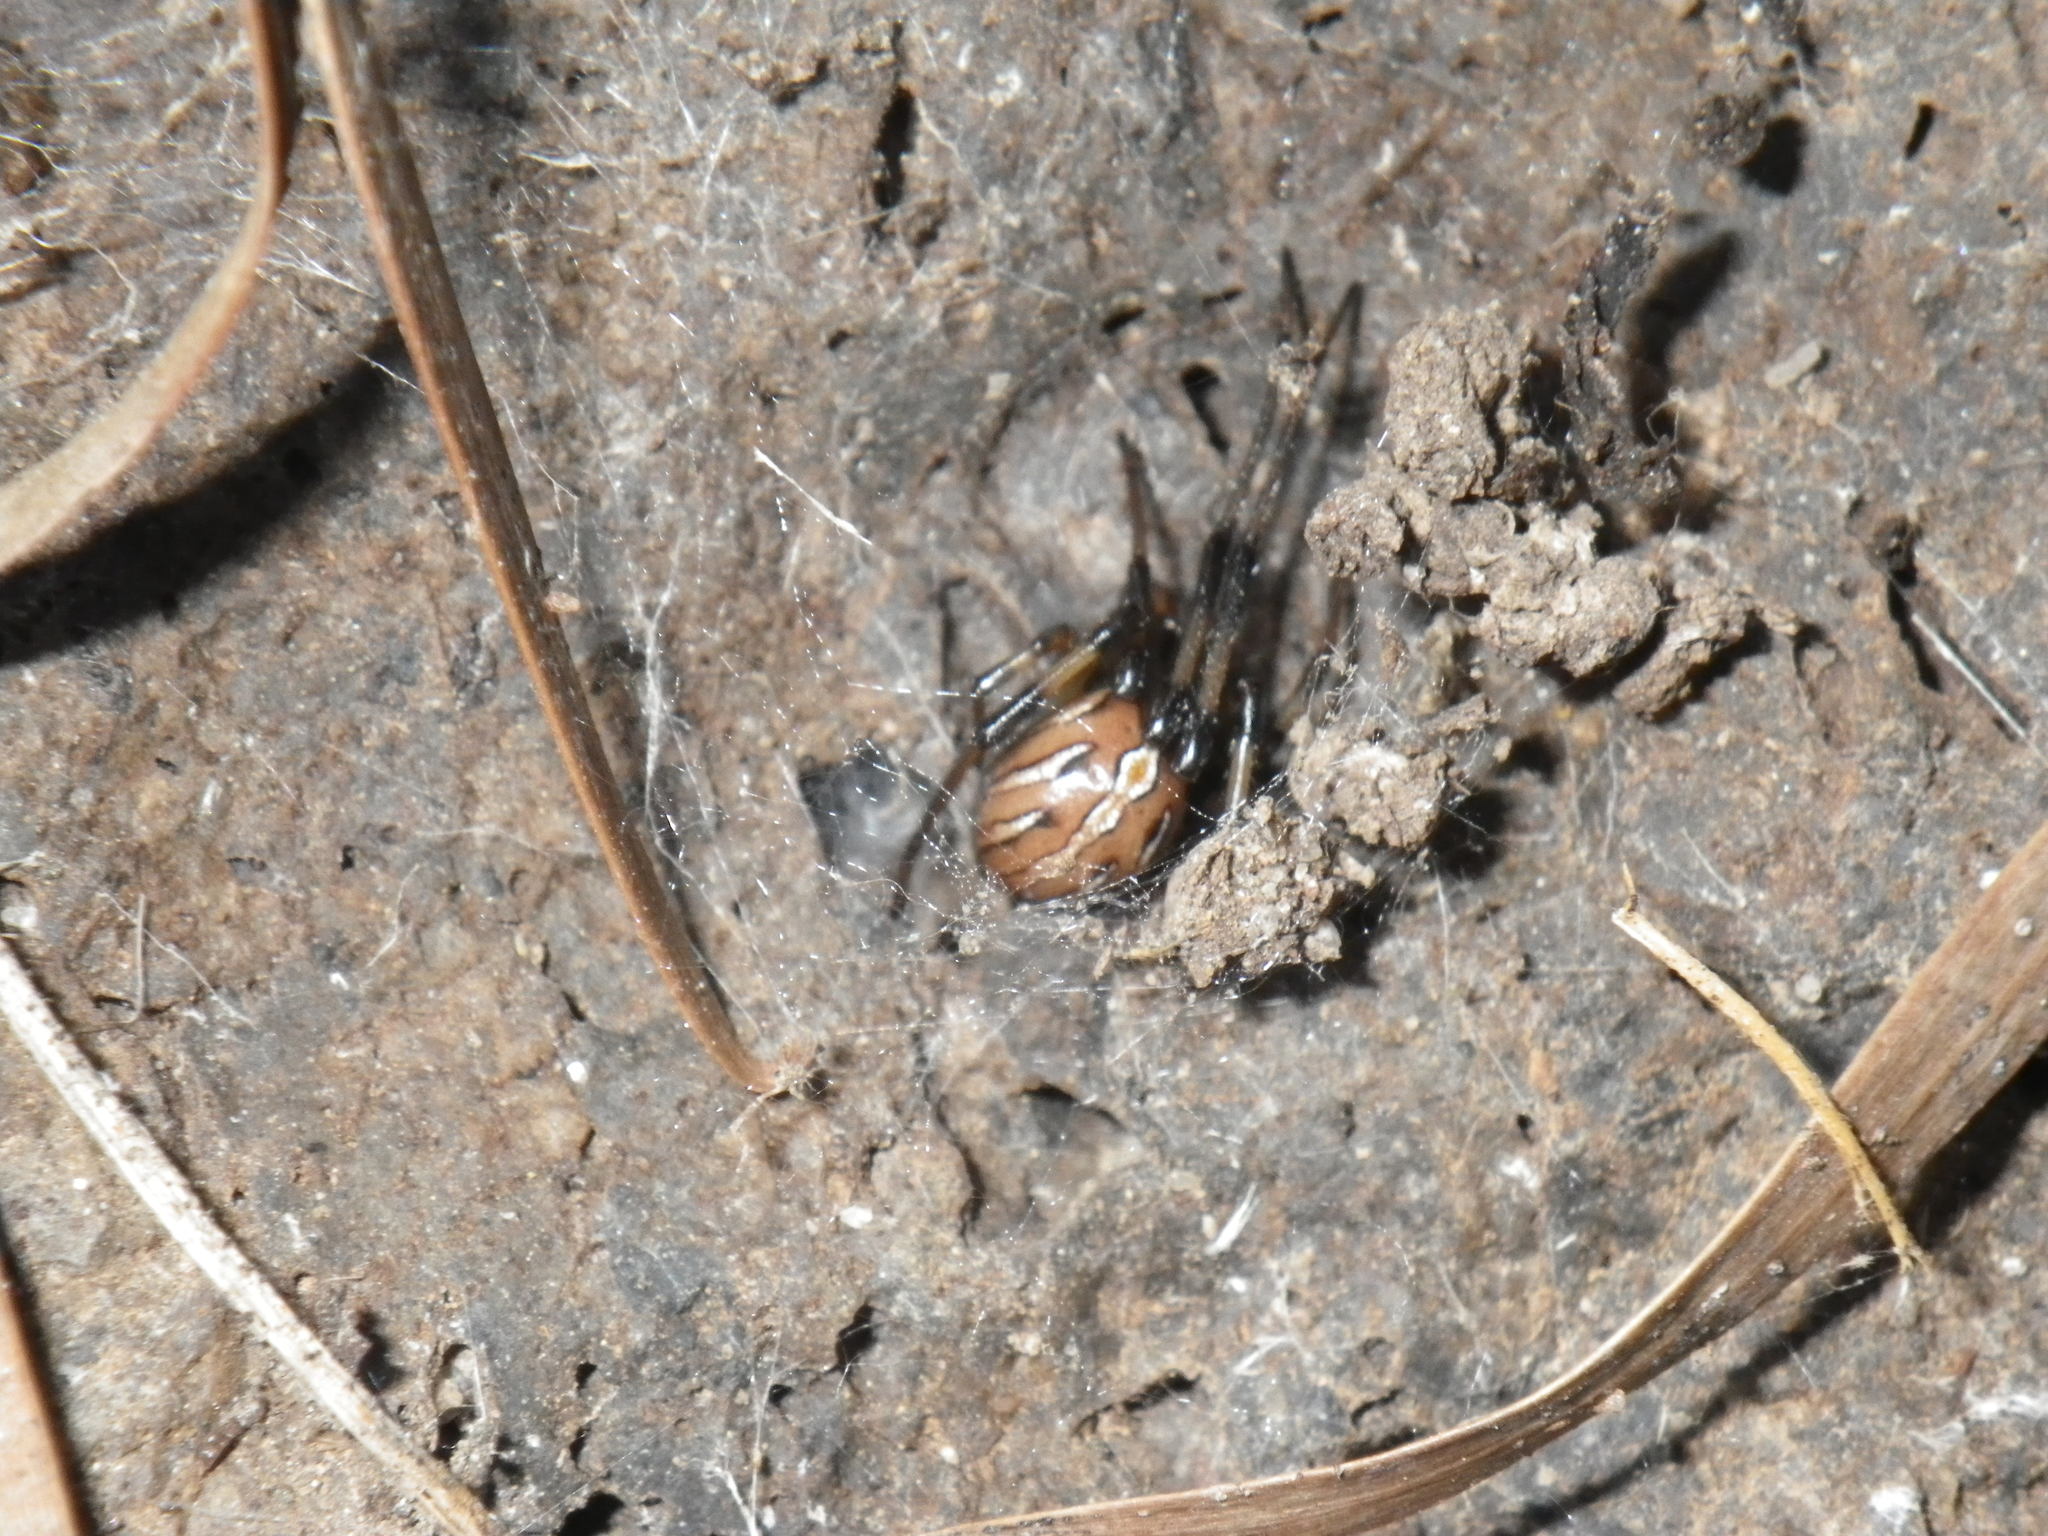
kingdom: Animalia
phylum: Arthropoda
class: Arachnida
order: Araneae
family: Theridiidae
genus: Latrodectus
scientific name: Latrodectus hesperus
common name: Western black widow
